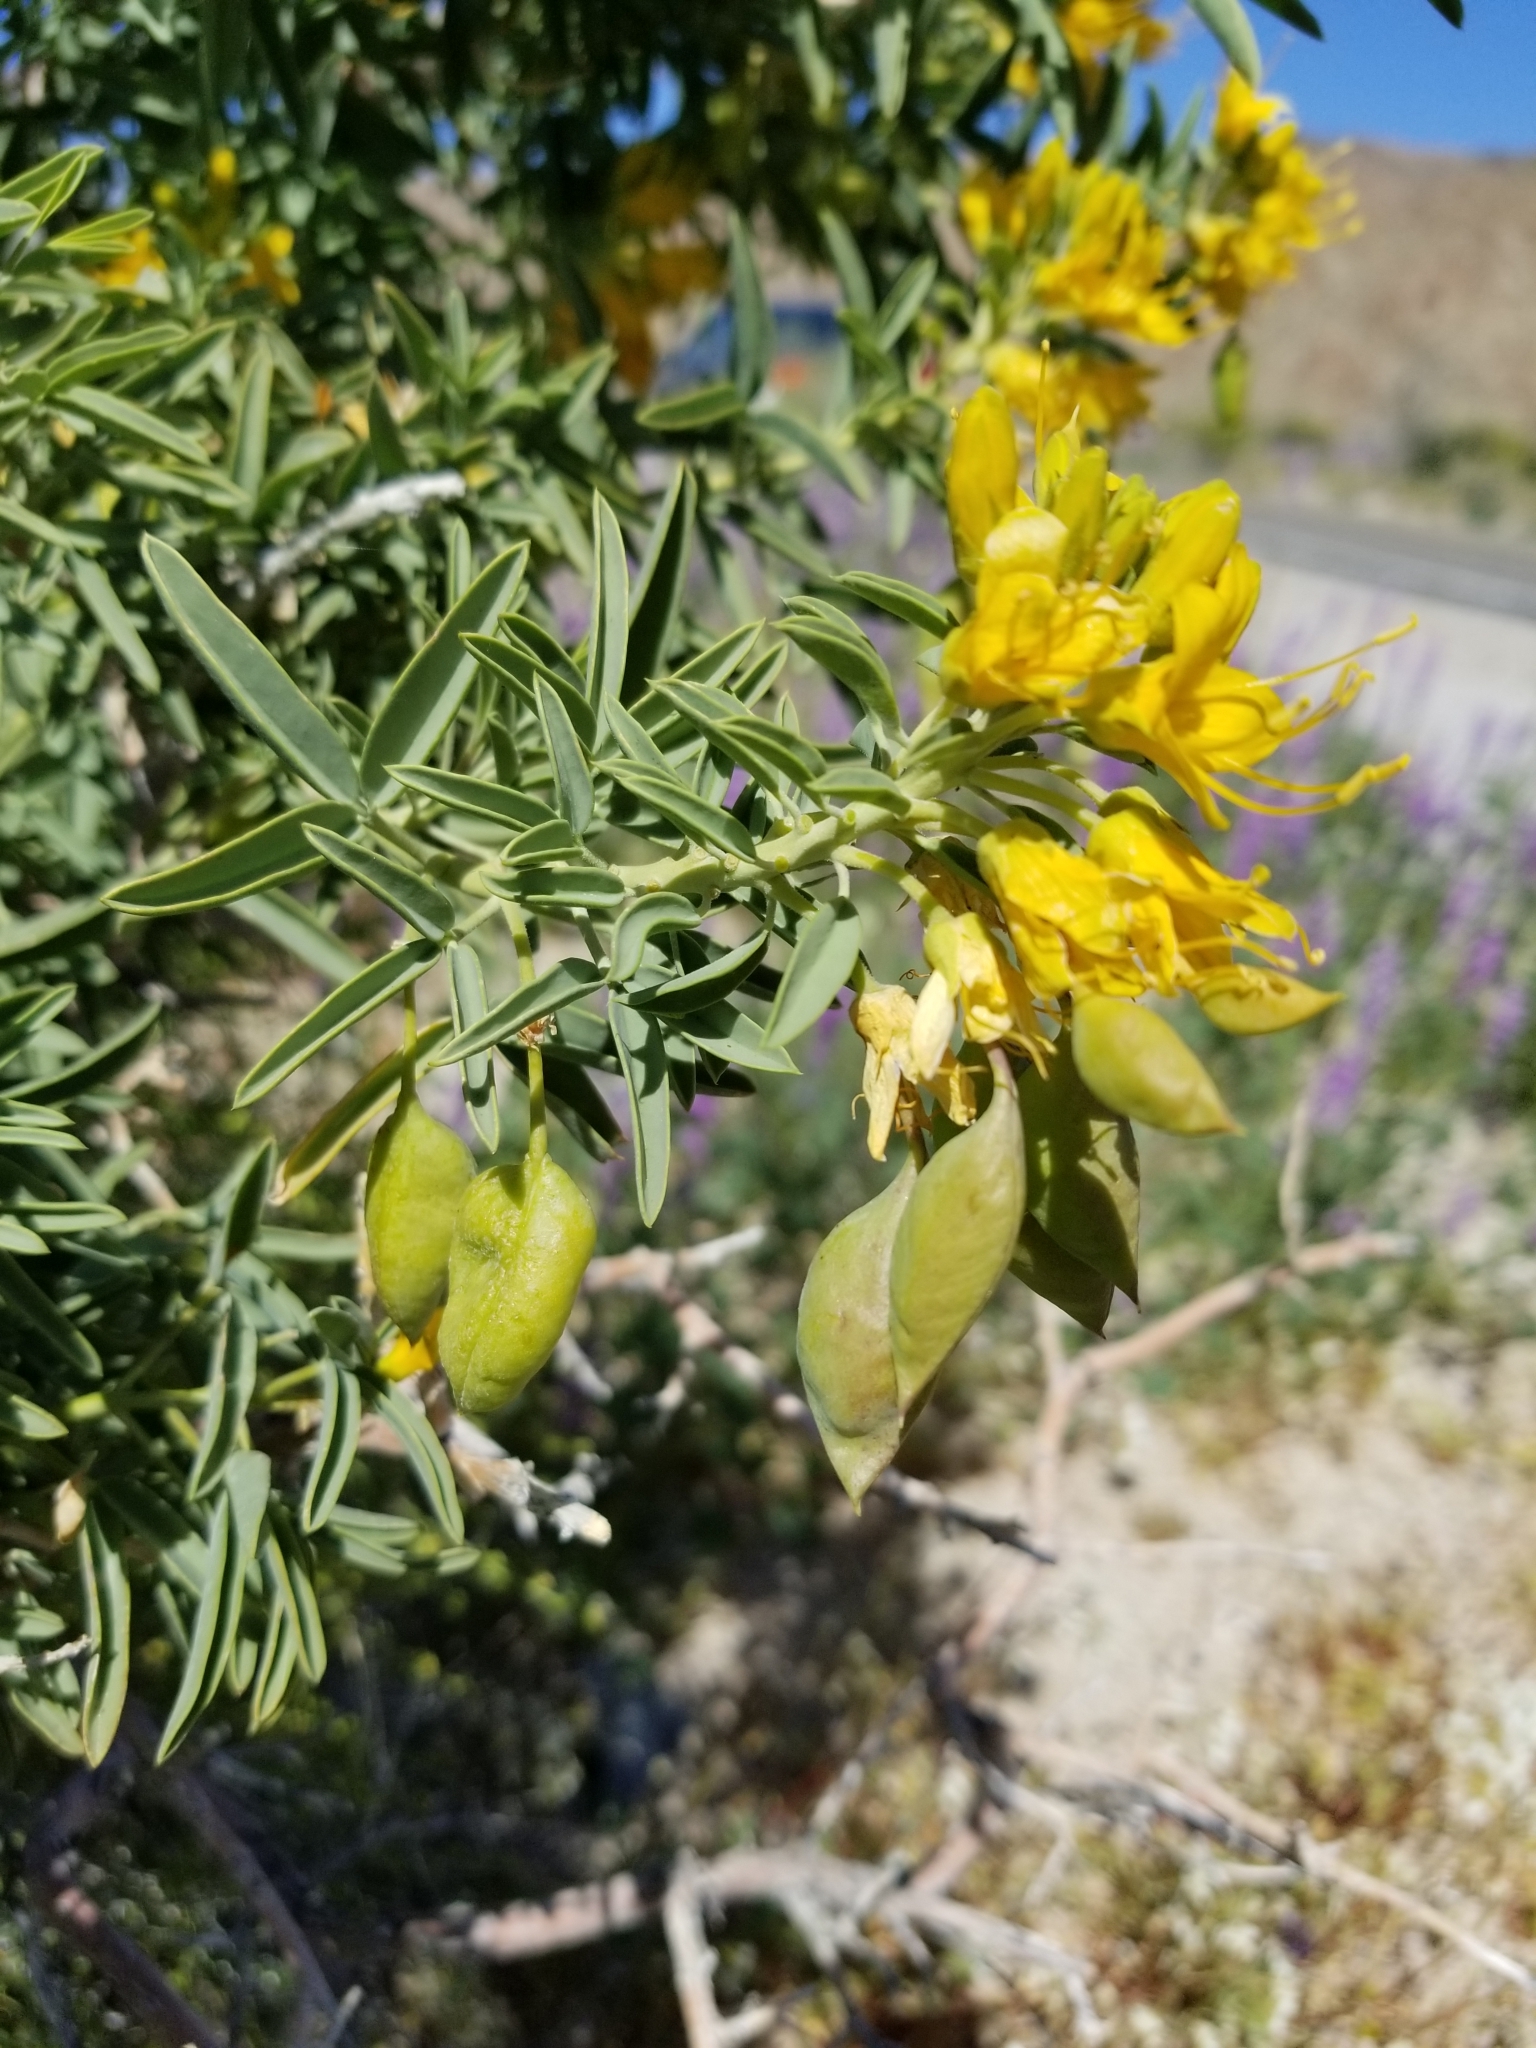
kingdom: Plantae
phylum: Tracheophyta
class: Magnoliopsida
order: Brassicales
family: Cleomaceae
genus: Cleomella
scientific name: Cleomella arborea
